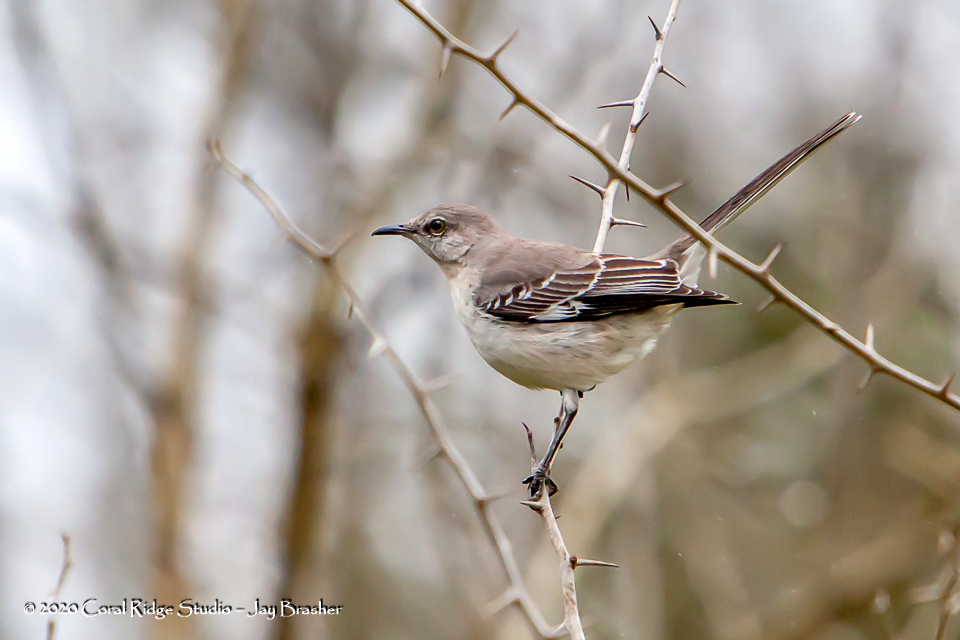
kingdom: Animalia
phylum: Chordata
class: Aves
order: Passeriformes
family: Mimidae
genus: Mimus
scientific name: Mimus polyglottos
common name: Northern mockingbird
